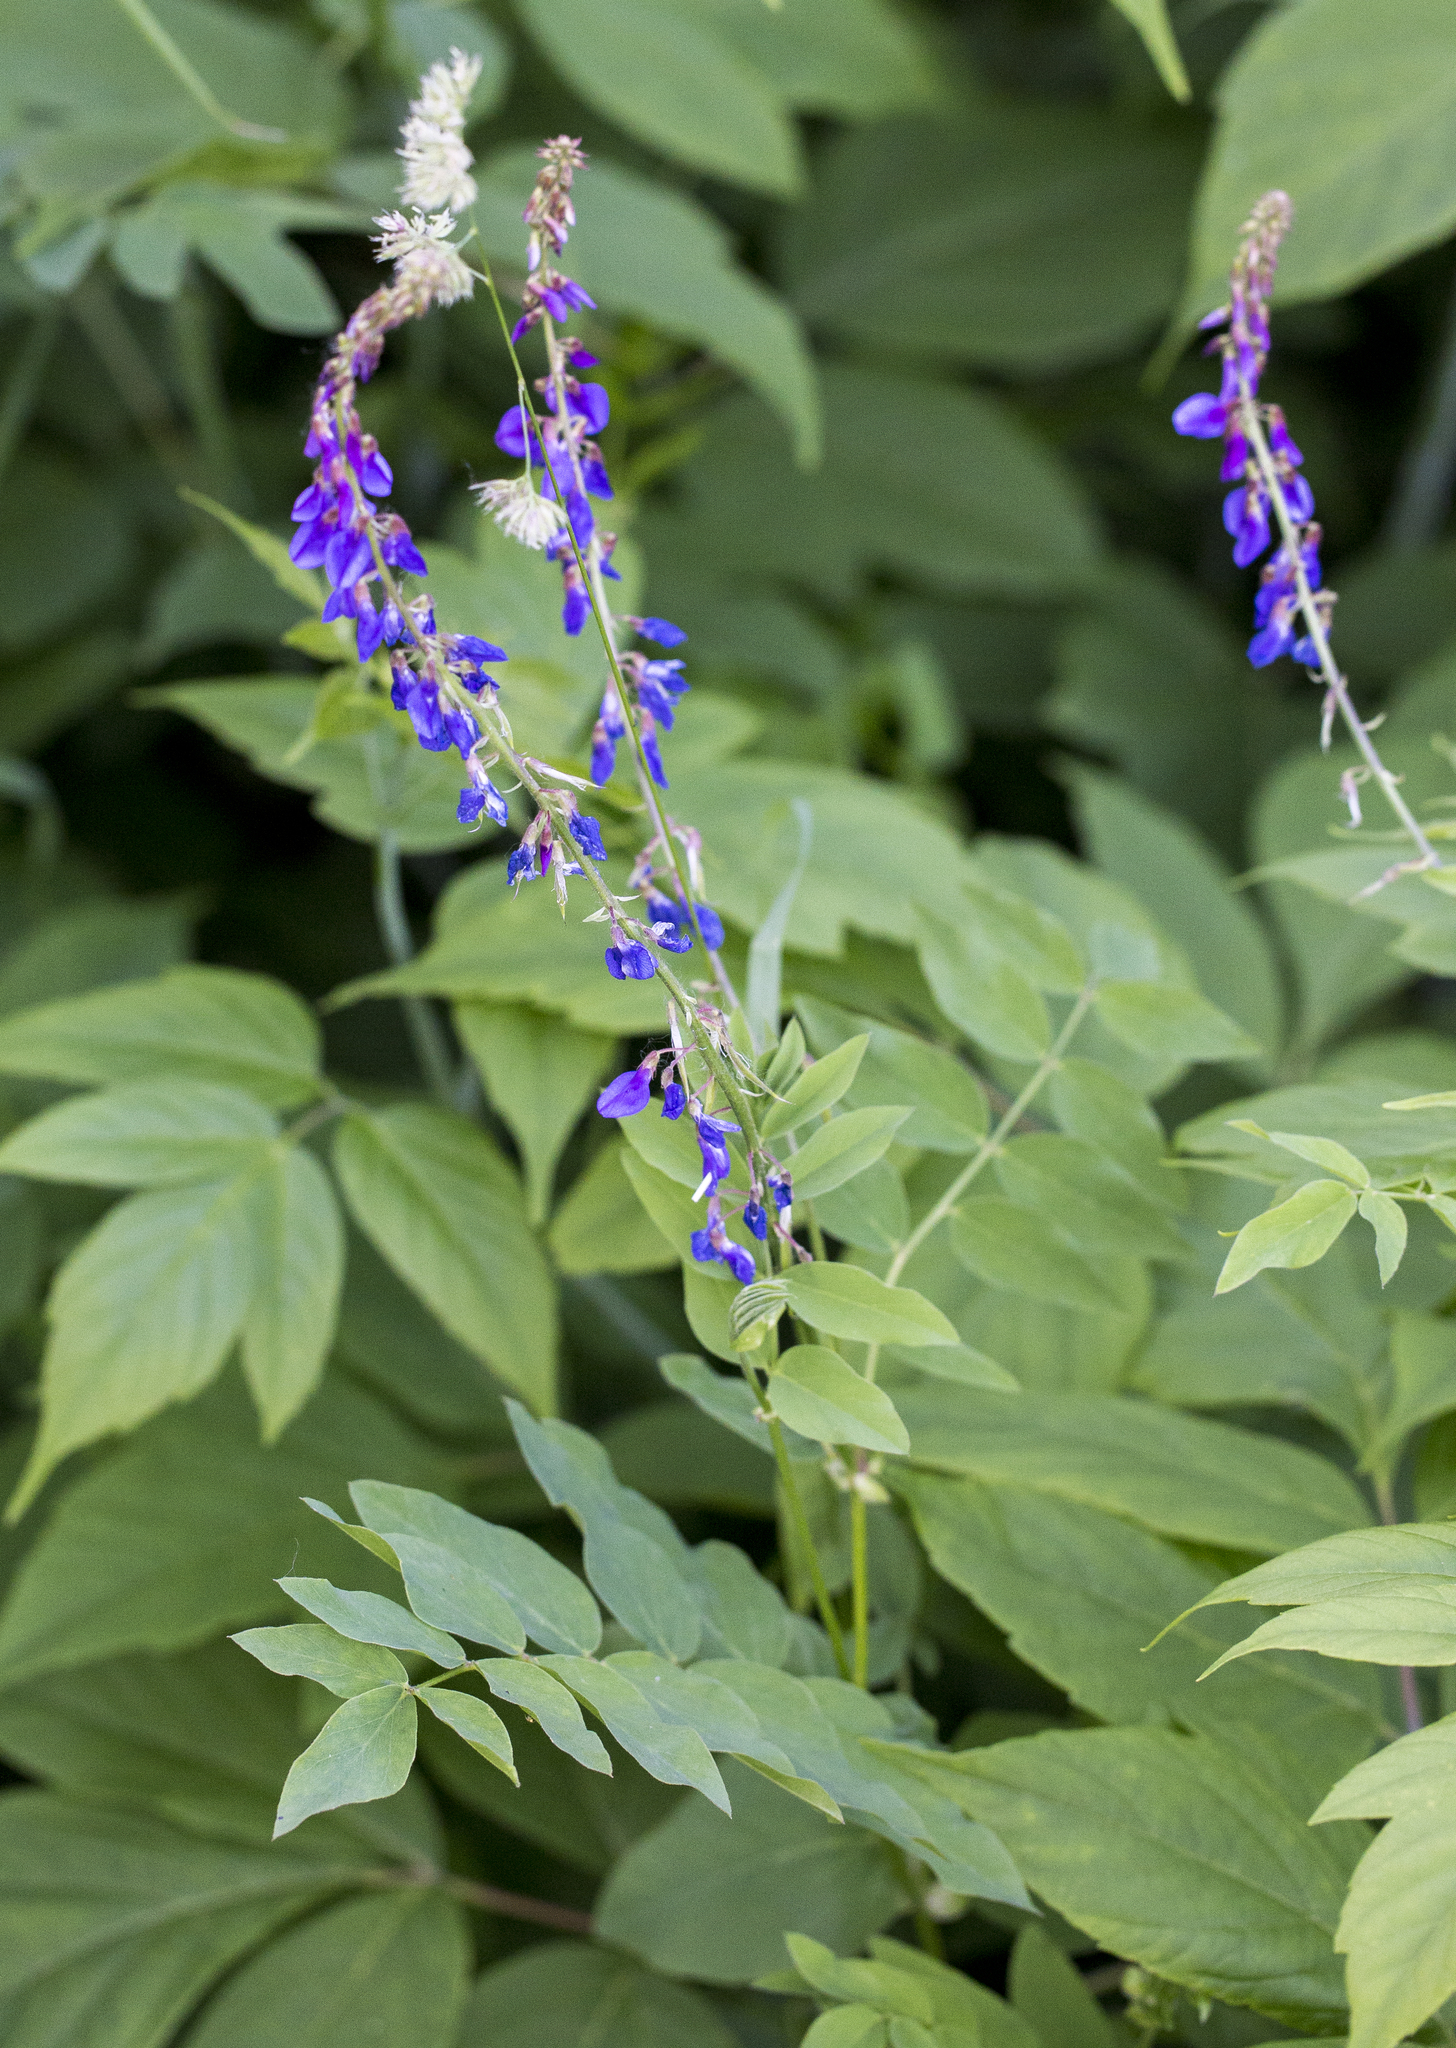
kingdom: Plantae
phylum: Tracheophyta
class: Magnoliopsida
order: Fabales
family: Fabaceae
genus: Galega
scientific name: Galega orientalis
